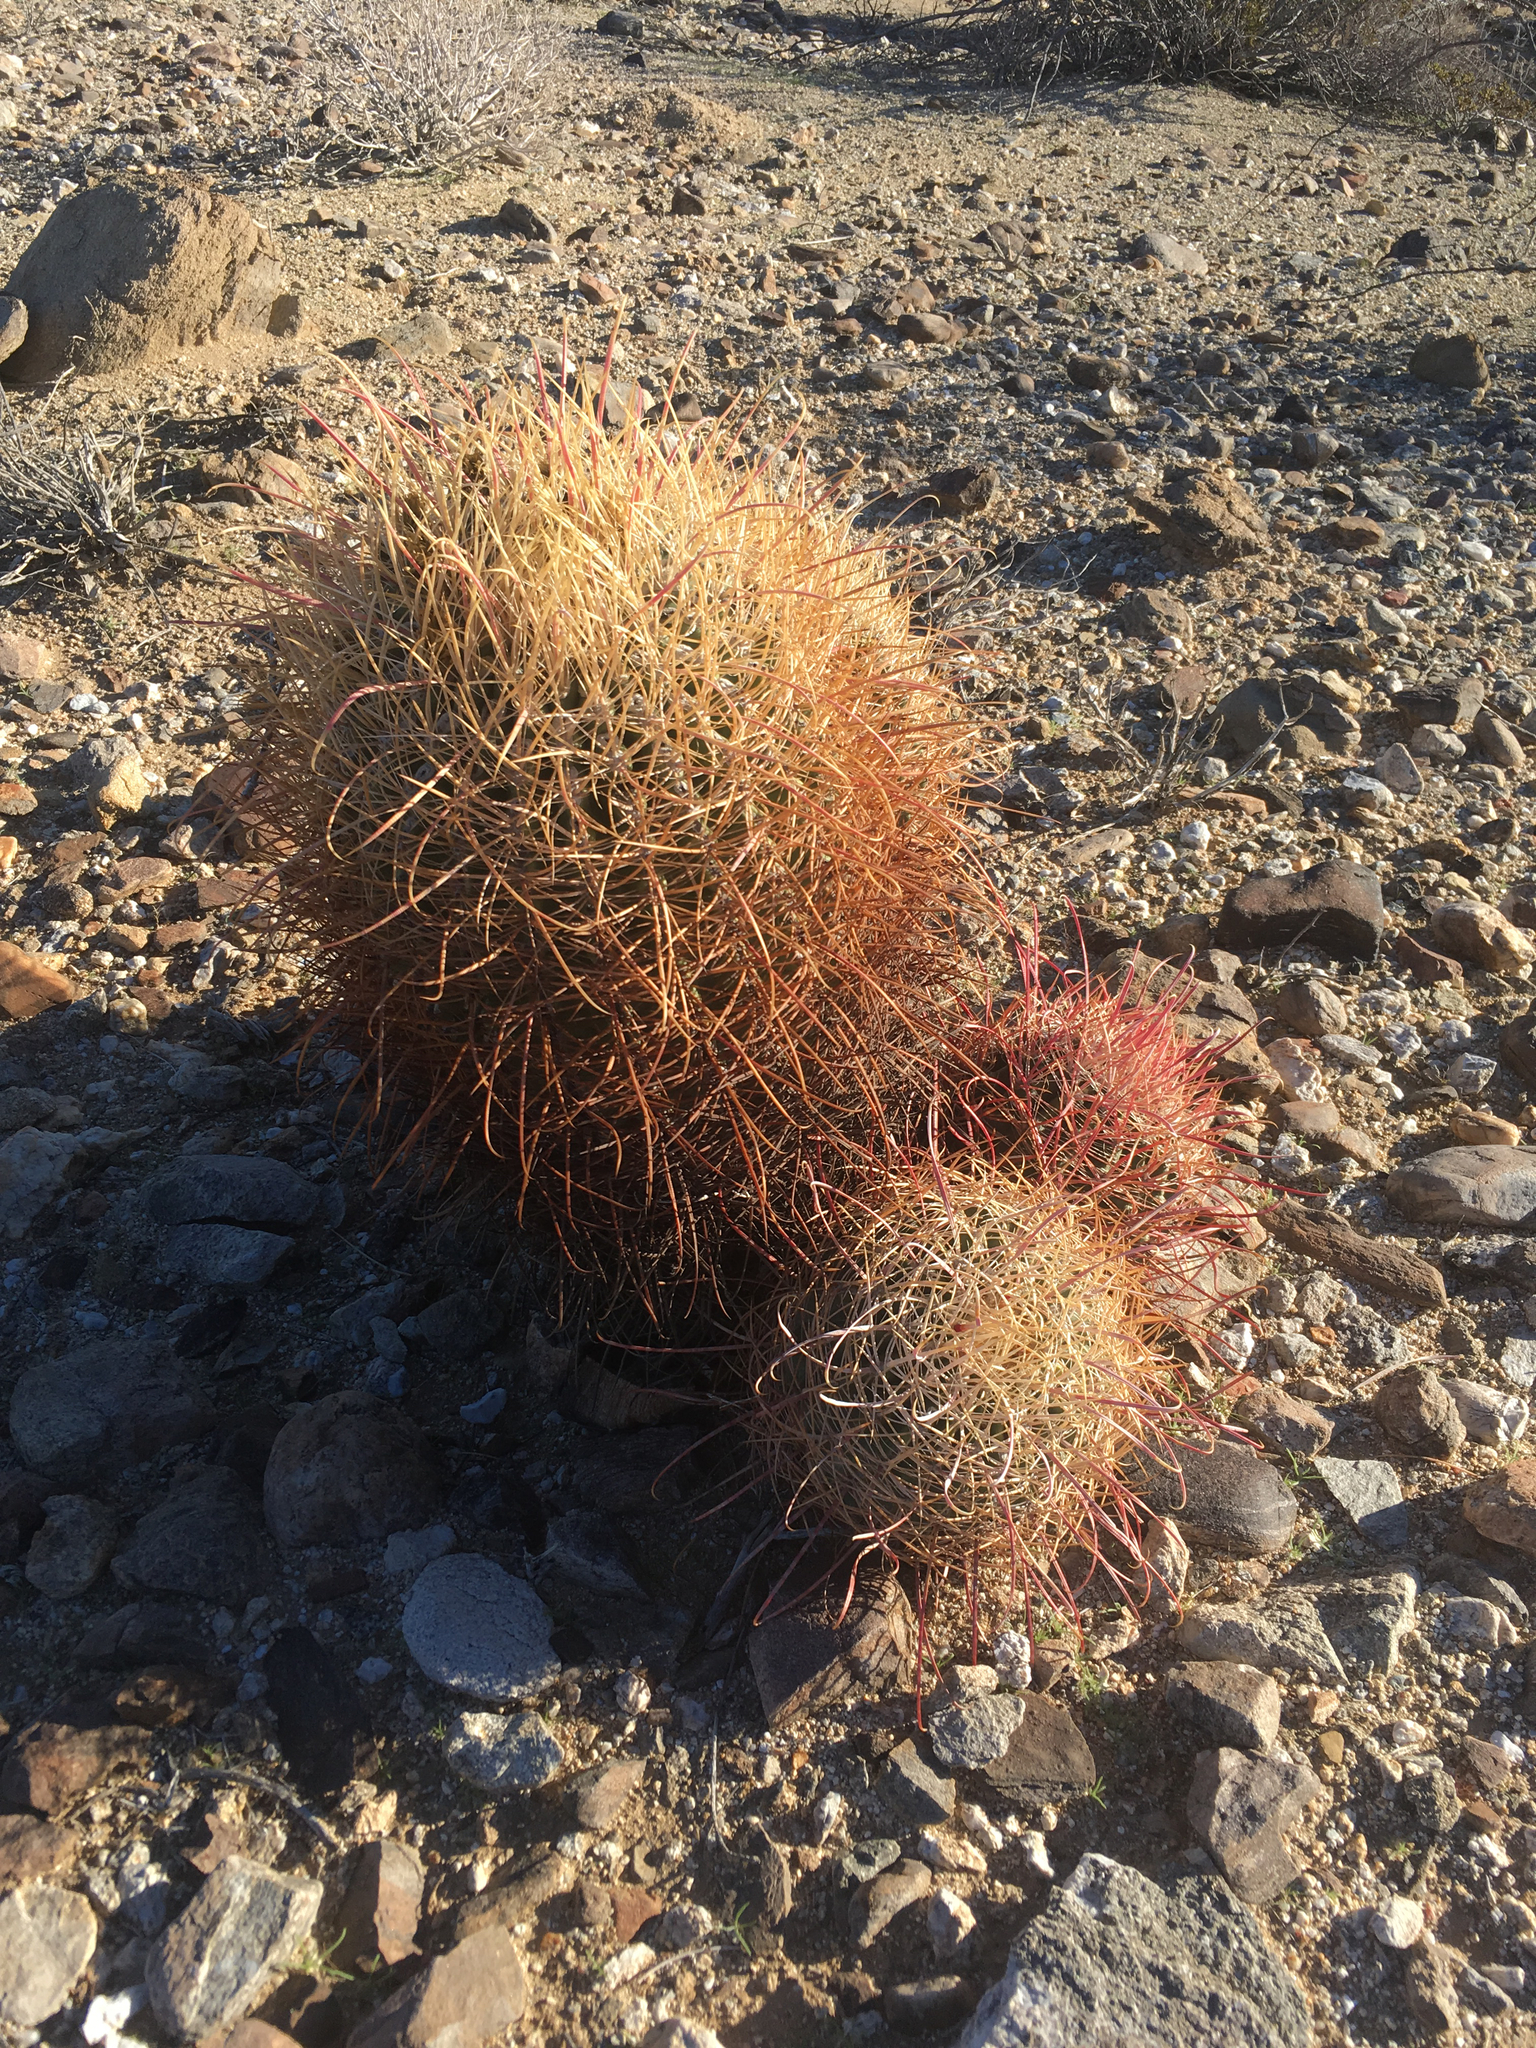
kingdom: Plantae
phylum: Tracheophyta
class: Magnoliopsida
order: Caryophyllales
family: Cactaceae
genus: Ferocactus
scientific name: Ferocactus cylindraceus
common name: California barrel cactus
